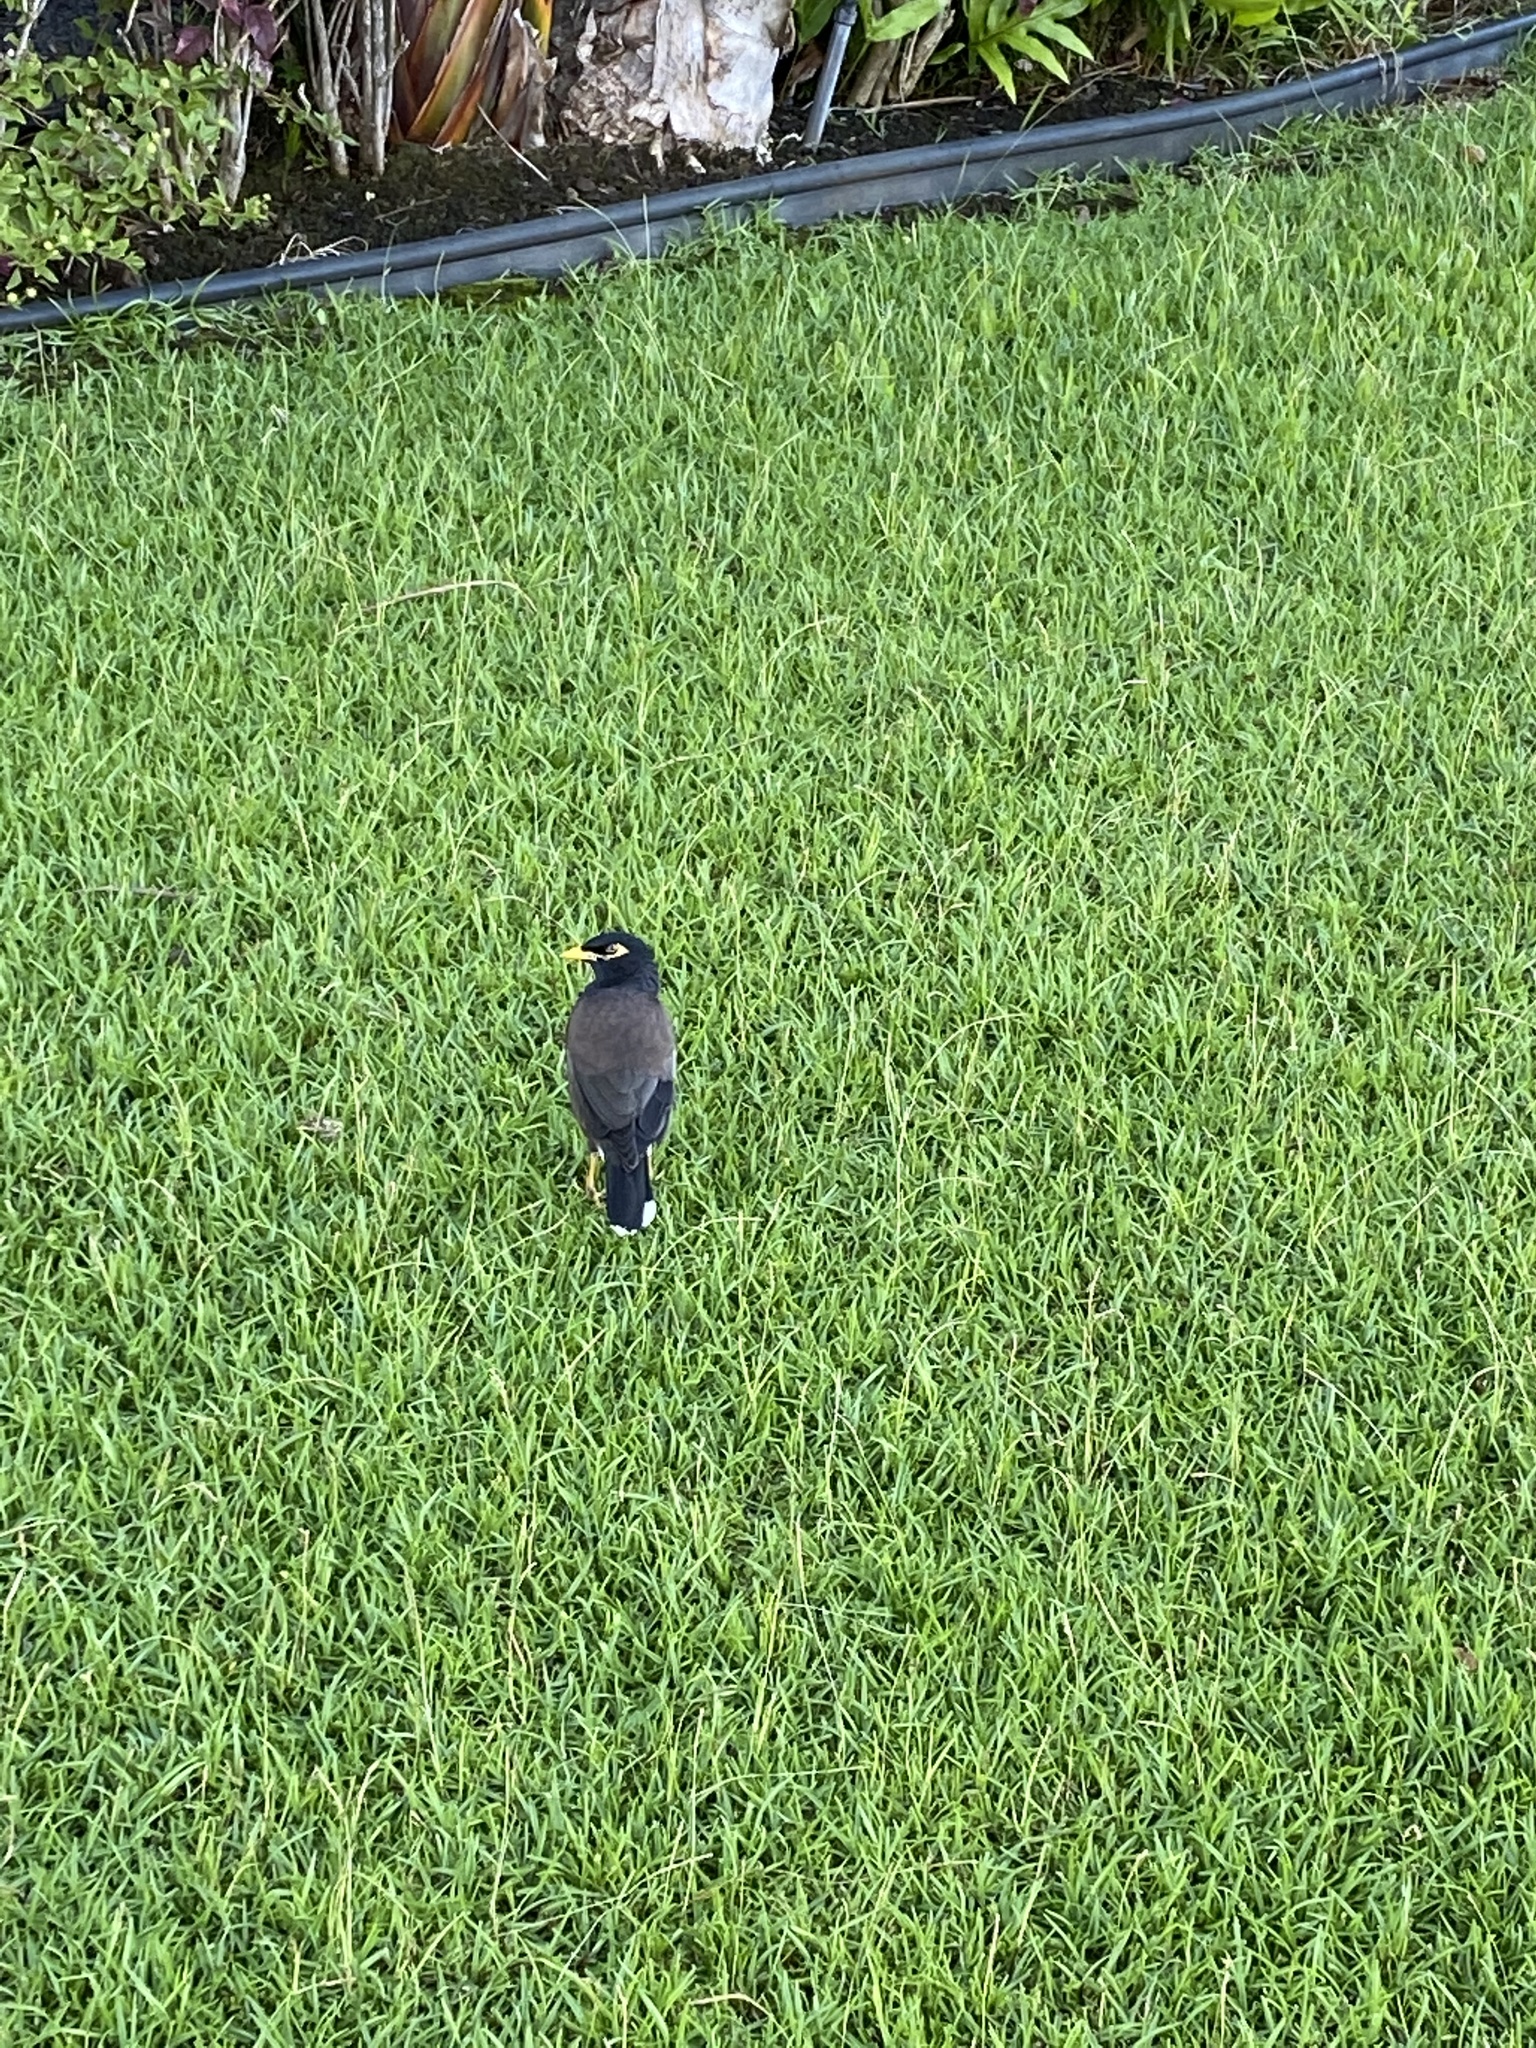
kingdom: Animalia
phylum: Chordata
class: Aves
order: Passeriformes
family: Sturnidae
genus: Acridotheres
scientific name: Acridotheres tristis
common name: Common myna
